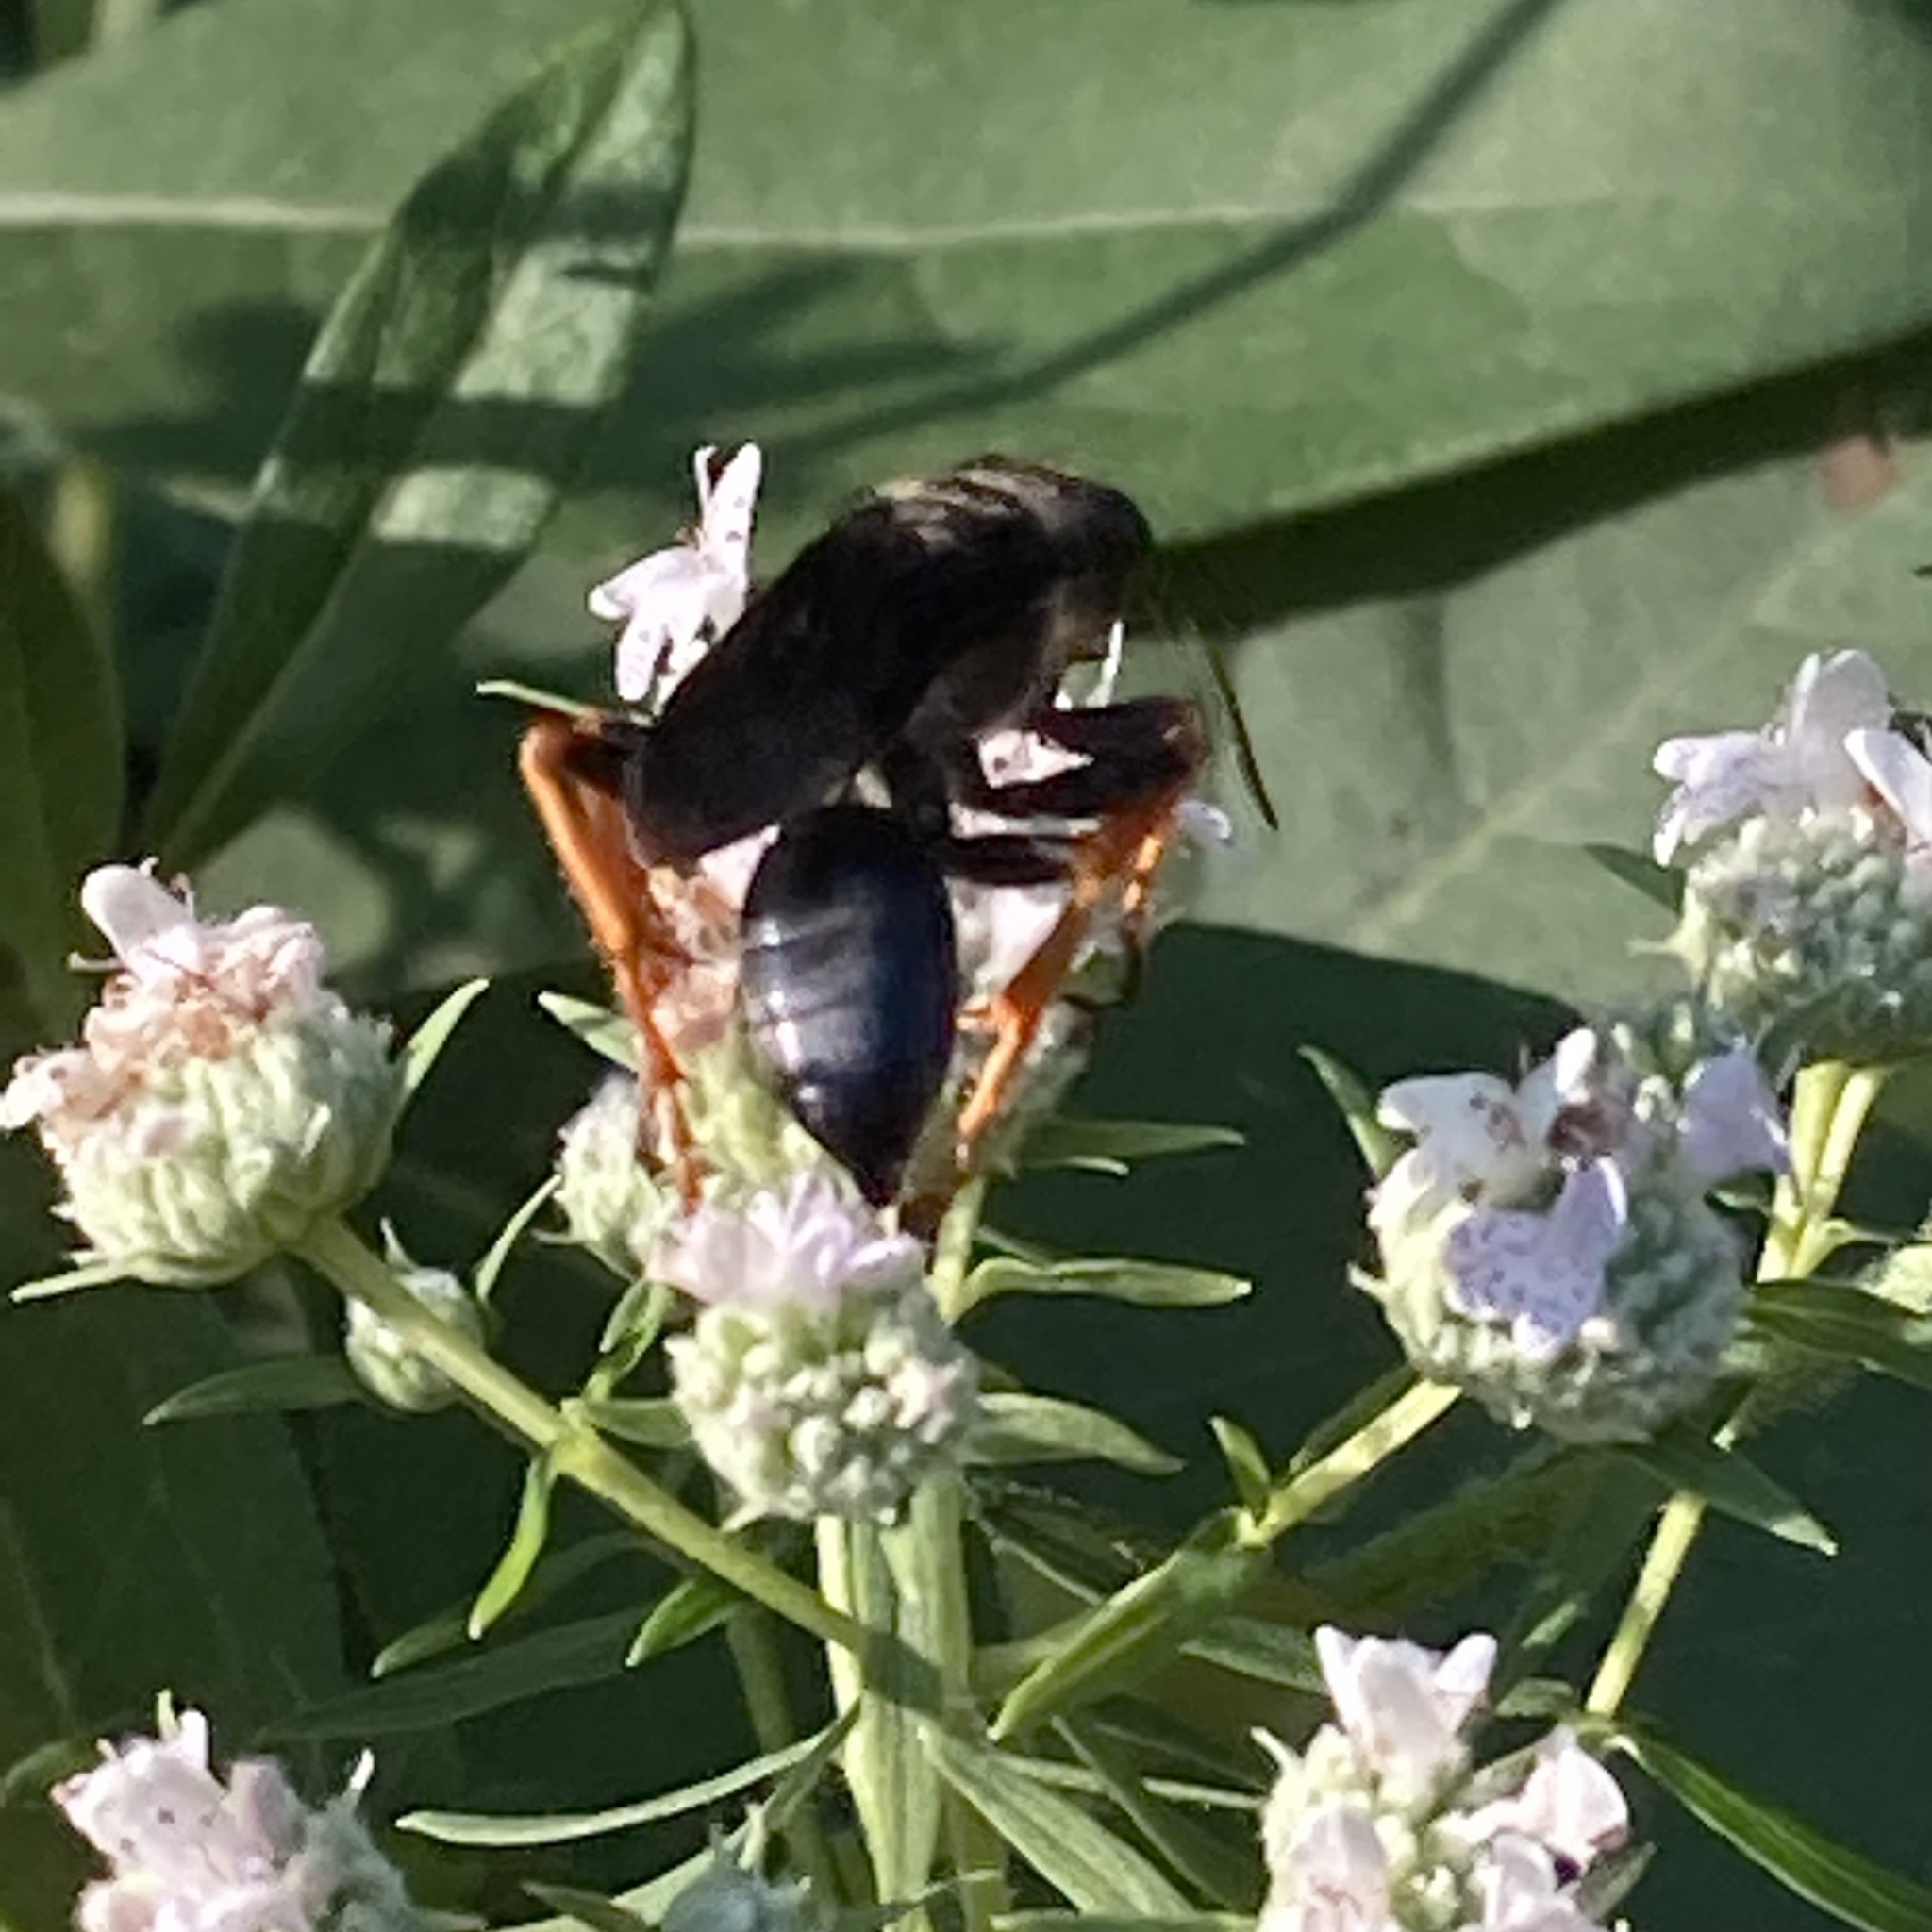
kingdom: Animalia
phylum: Arthropoda
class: Insecta
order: Hymenoptera
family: Sphecidae
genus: Sphex
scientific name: Sphex nudus
